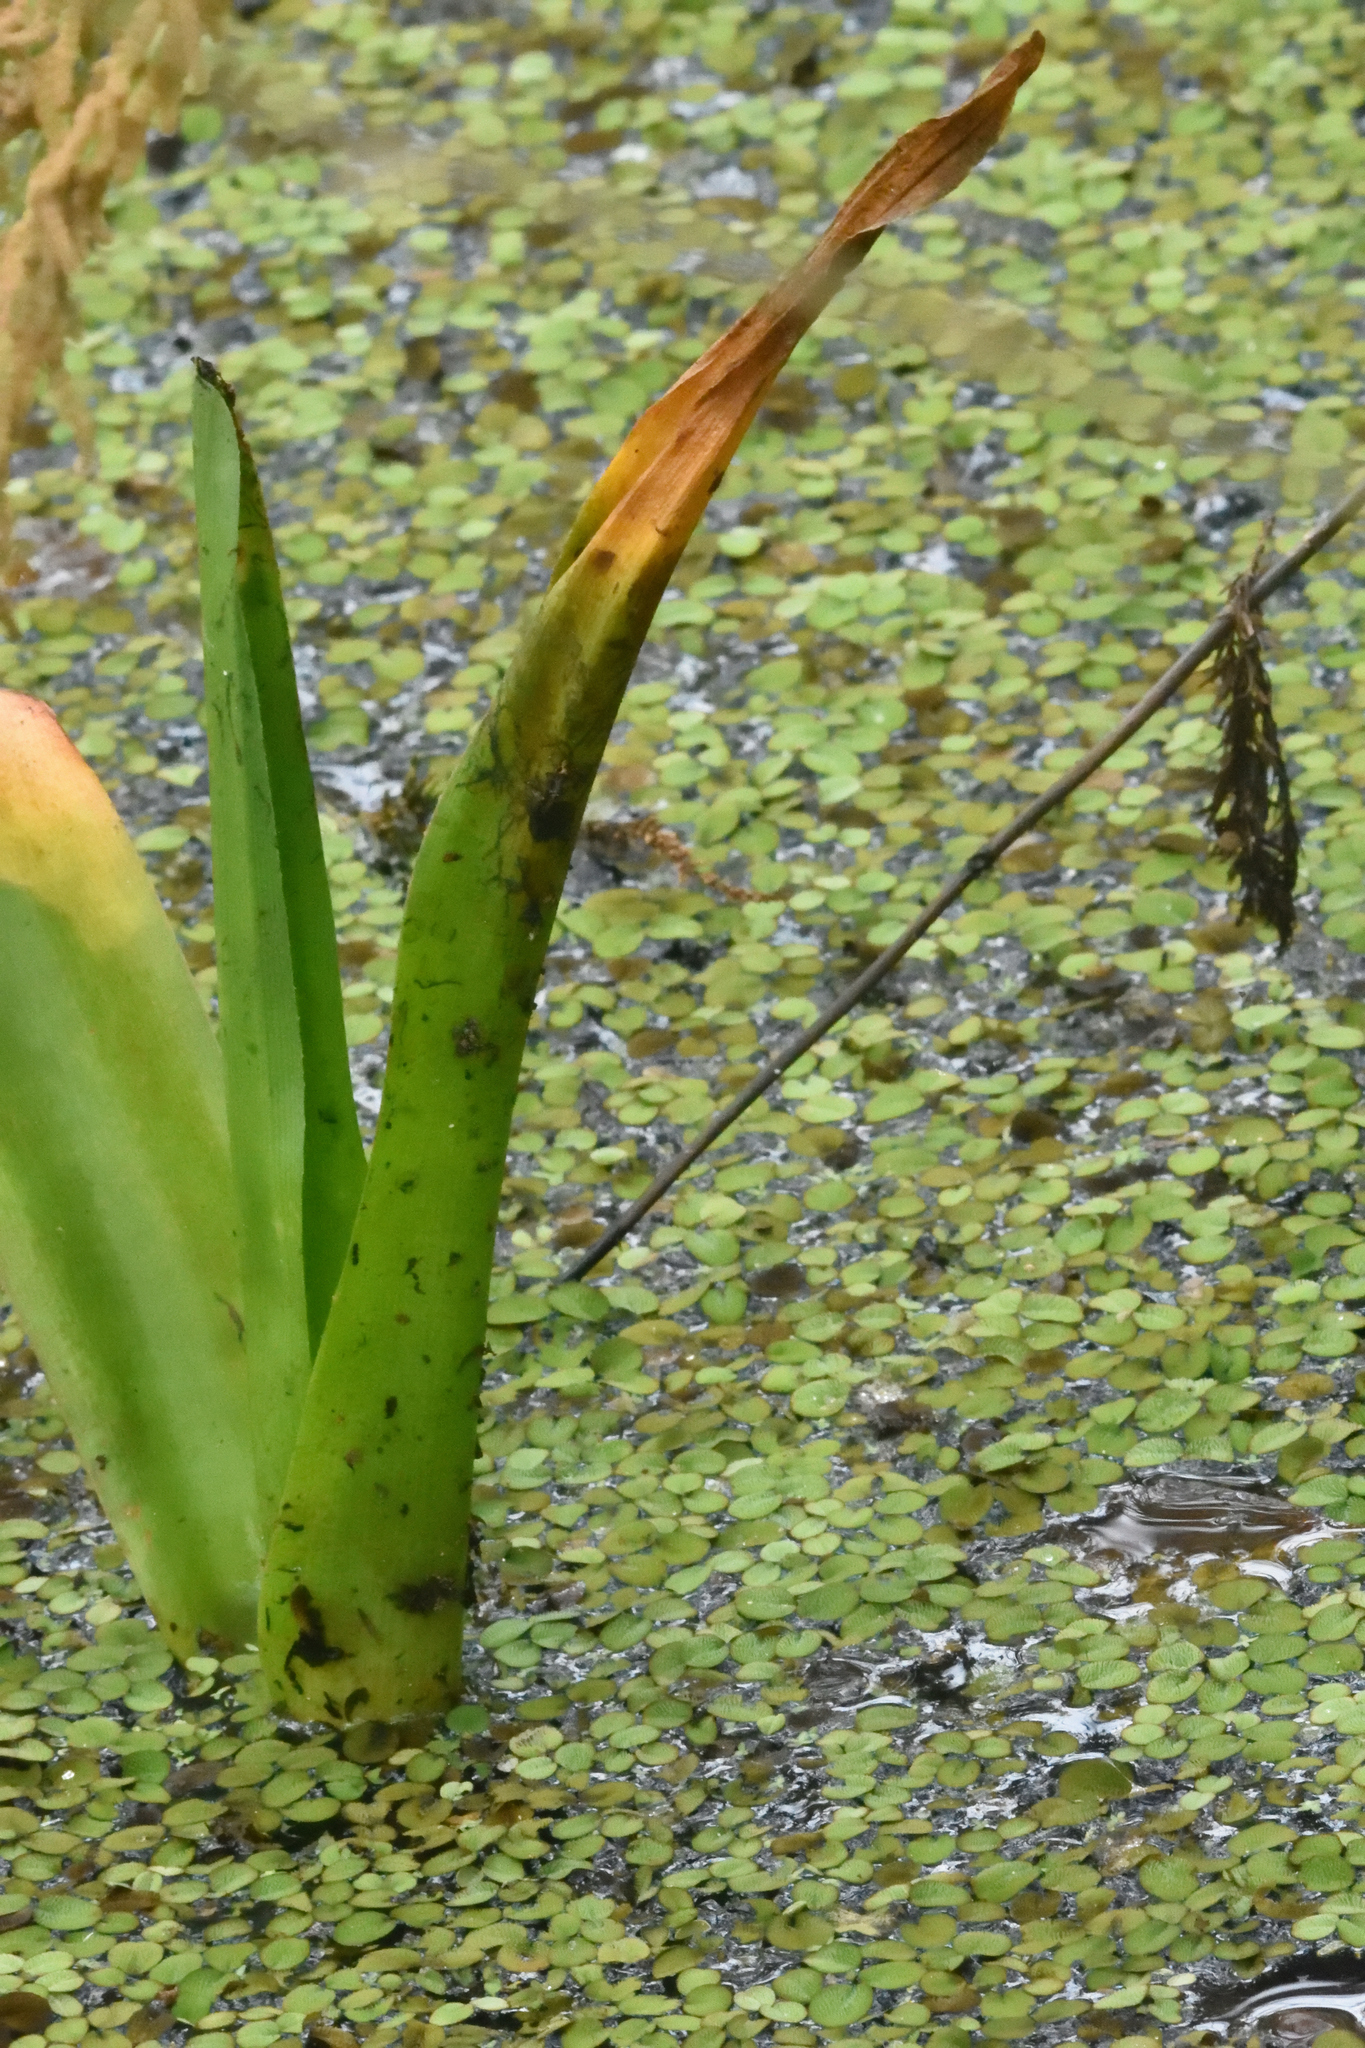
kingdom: Plantae
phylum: Tracheophyta
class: Polypodiopsida
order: Salviniales
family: Salviniaceae
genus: Salvinia
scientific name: Salvinia minima
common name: Water spangles
